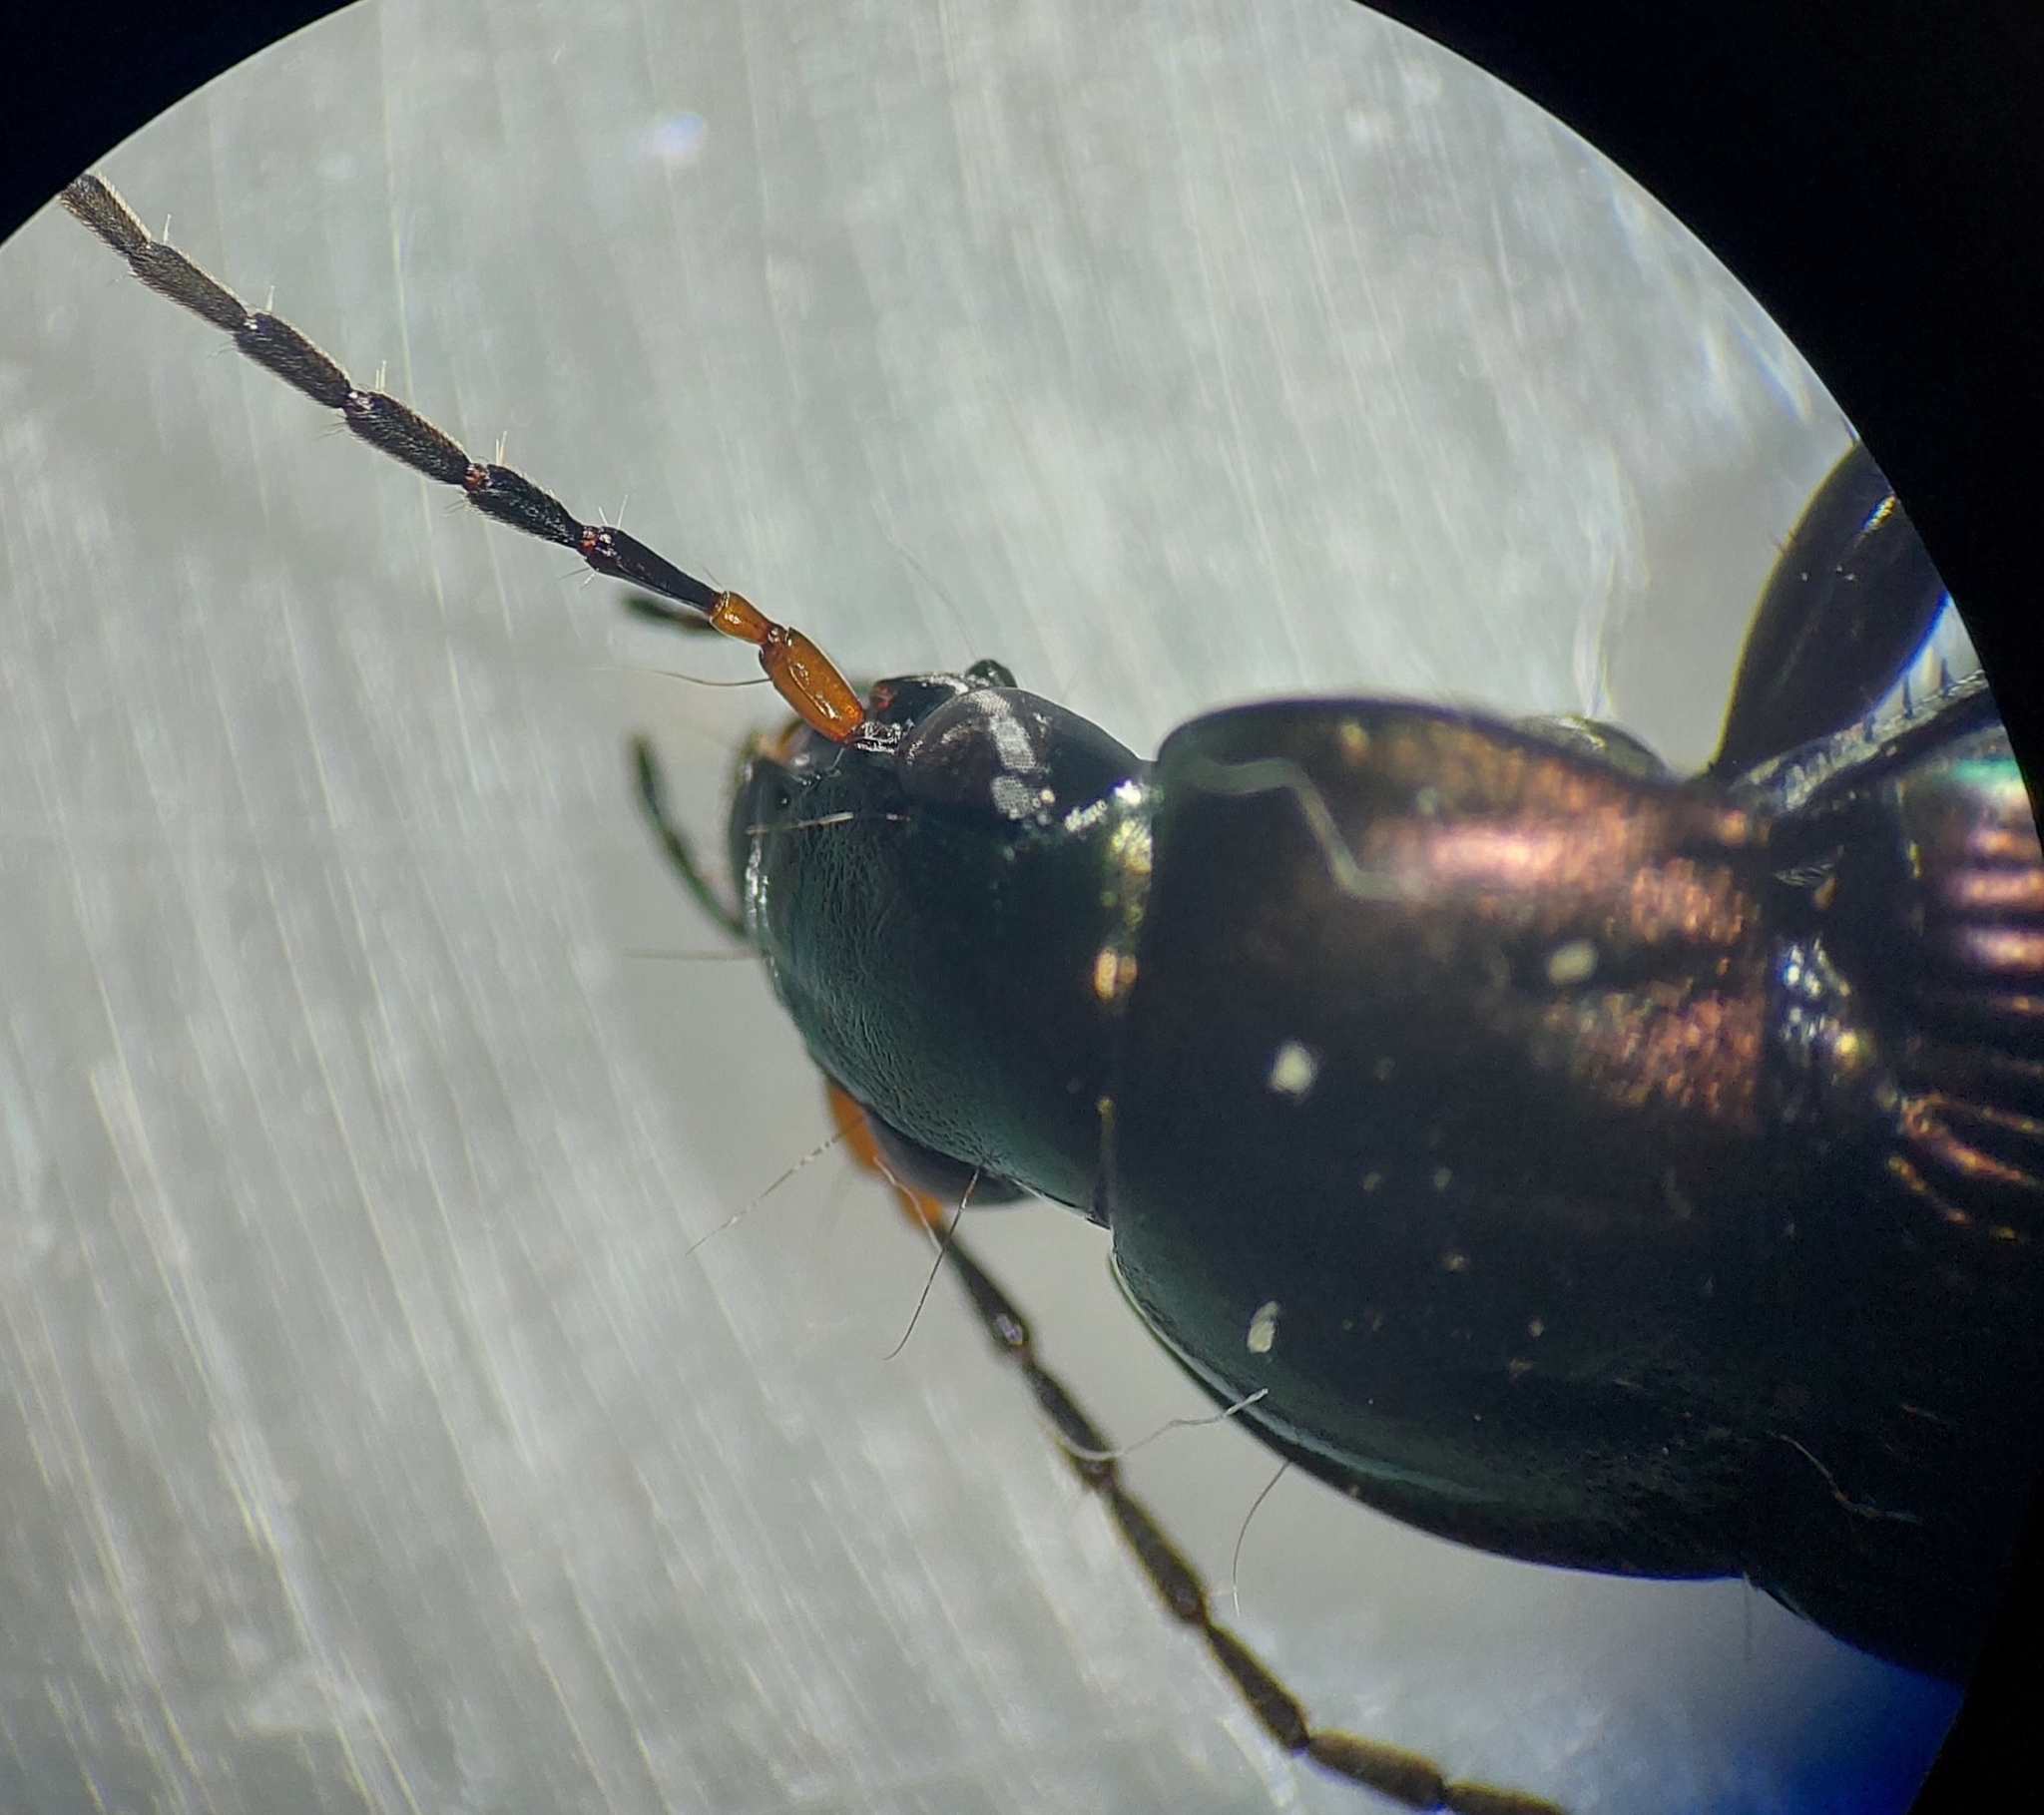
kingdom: Animalia
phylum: Arthropoda
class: Insecta
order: Coleoptera
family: Carabidae
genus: Poecilus
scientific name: Poecilus cupreus
